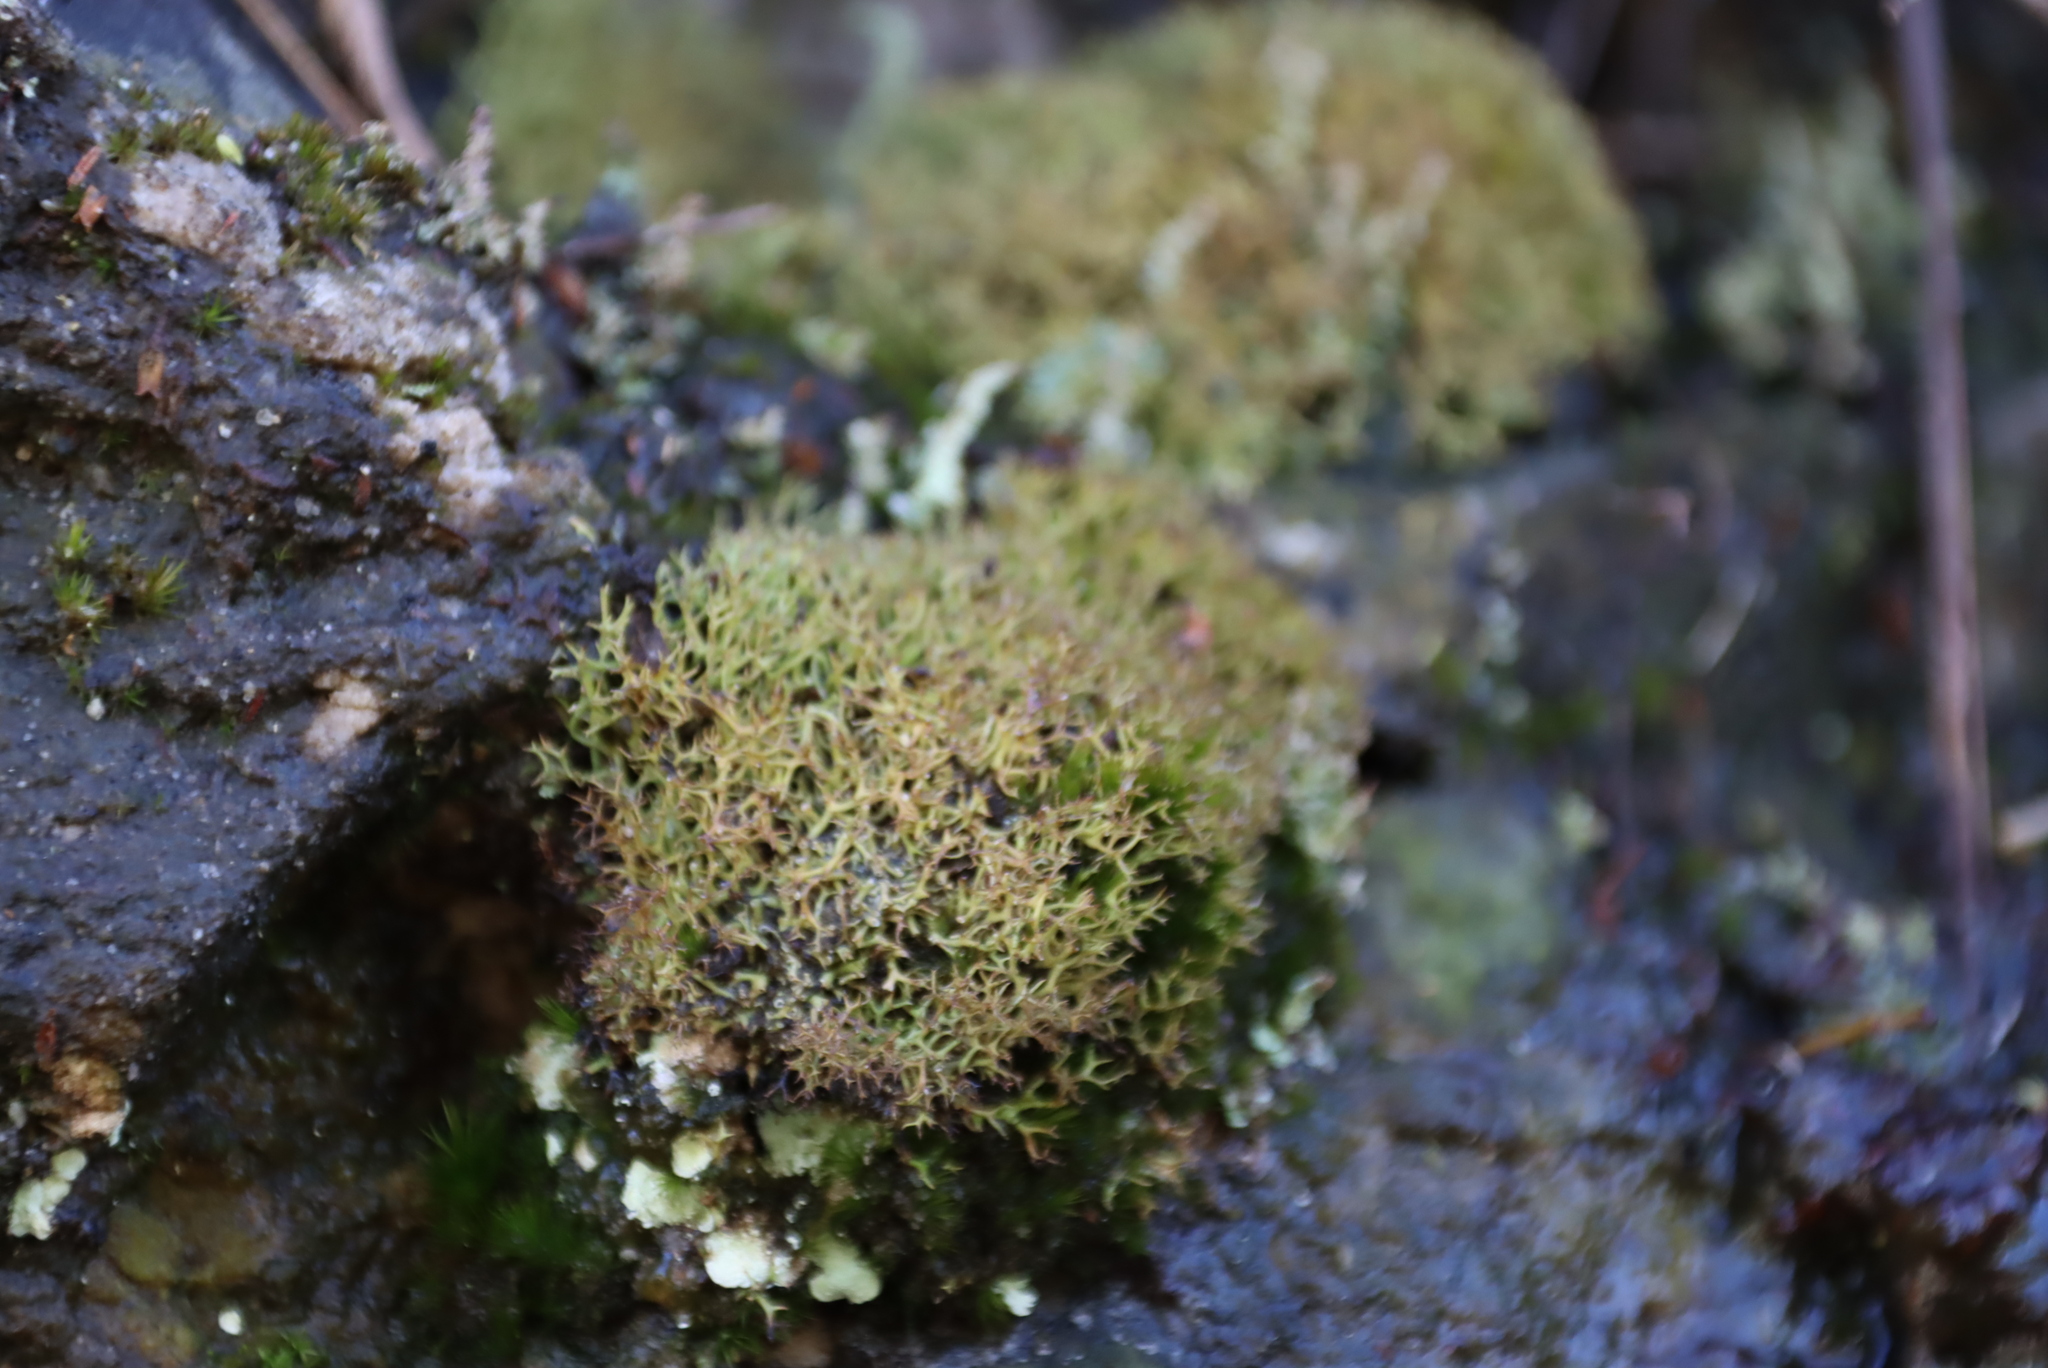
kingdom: Fungi
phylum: Ascomycota
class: Lecanoromycetes
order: Lecanorales
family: Cladoniaceae
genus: Cladia
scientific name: Cladia aggregata
